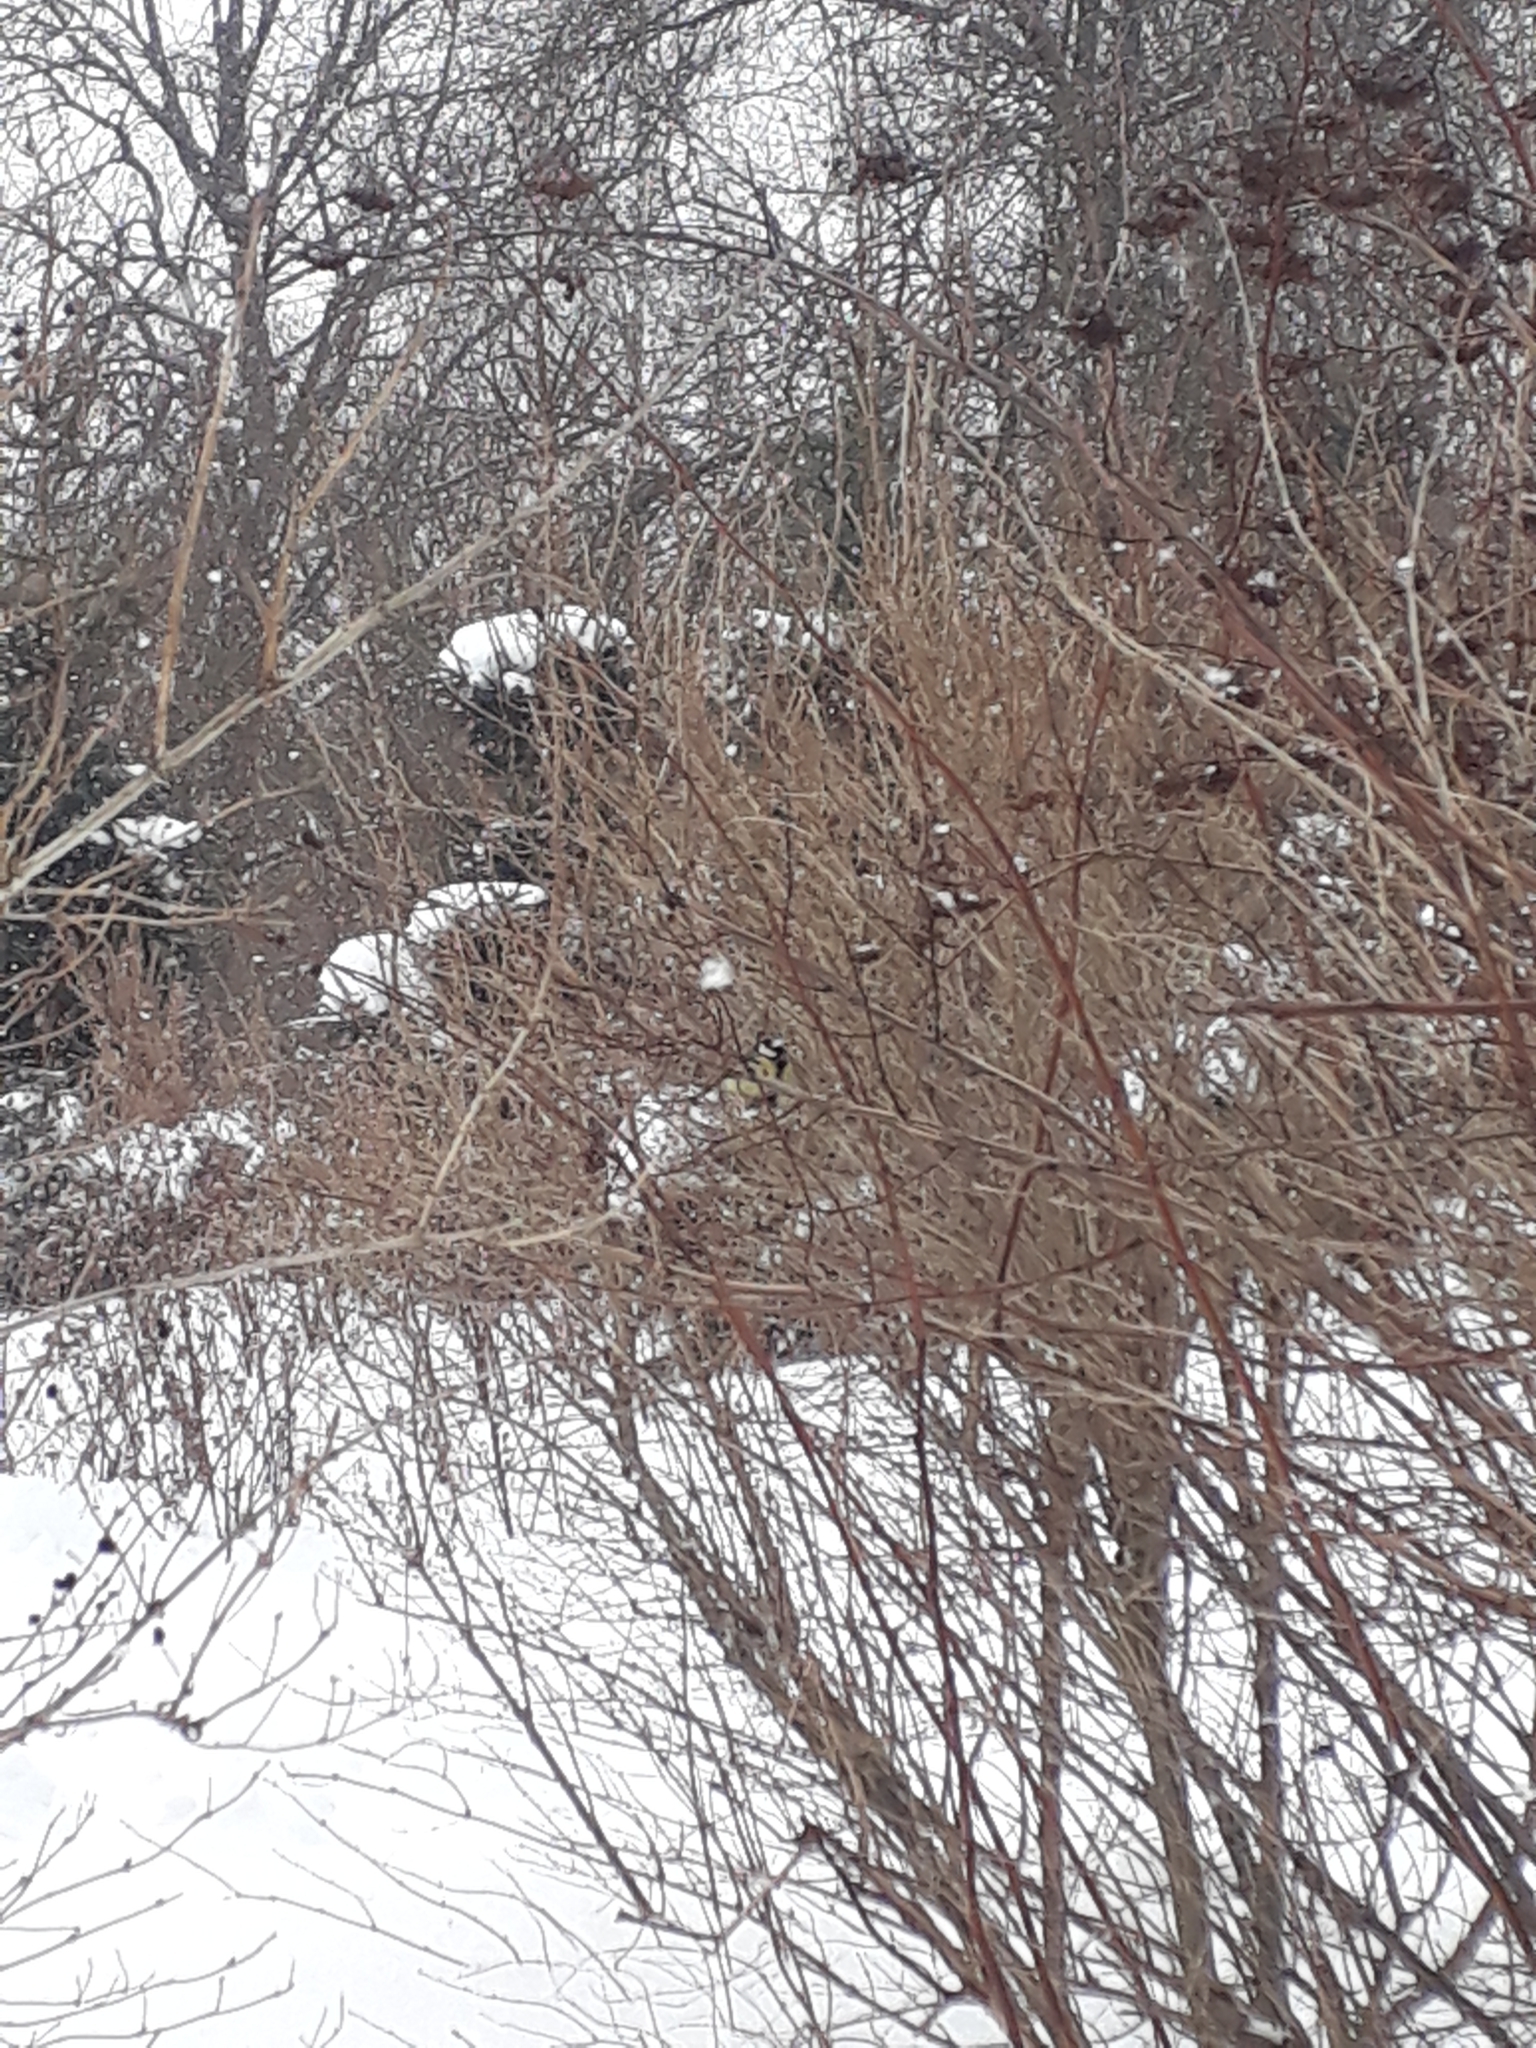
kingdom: Animalia
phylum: Chordata
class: Aves
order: Passeriformes
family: Paridae
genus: Parus
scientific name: Parus major
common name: Great tit
